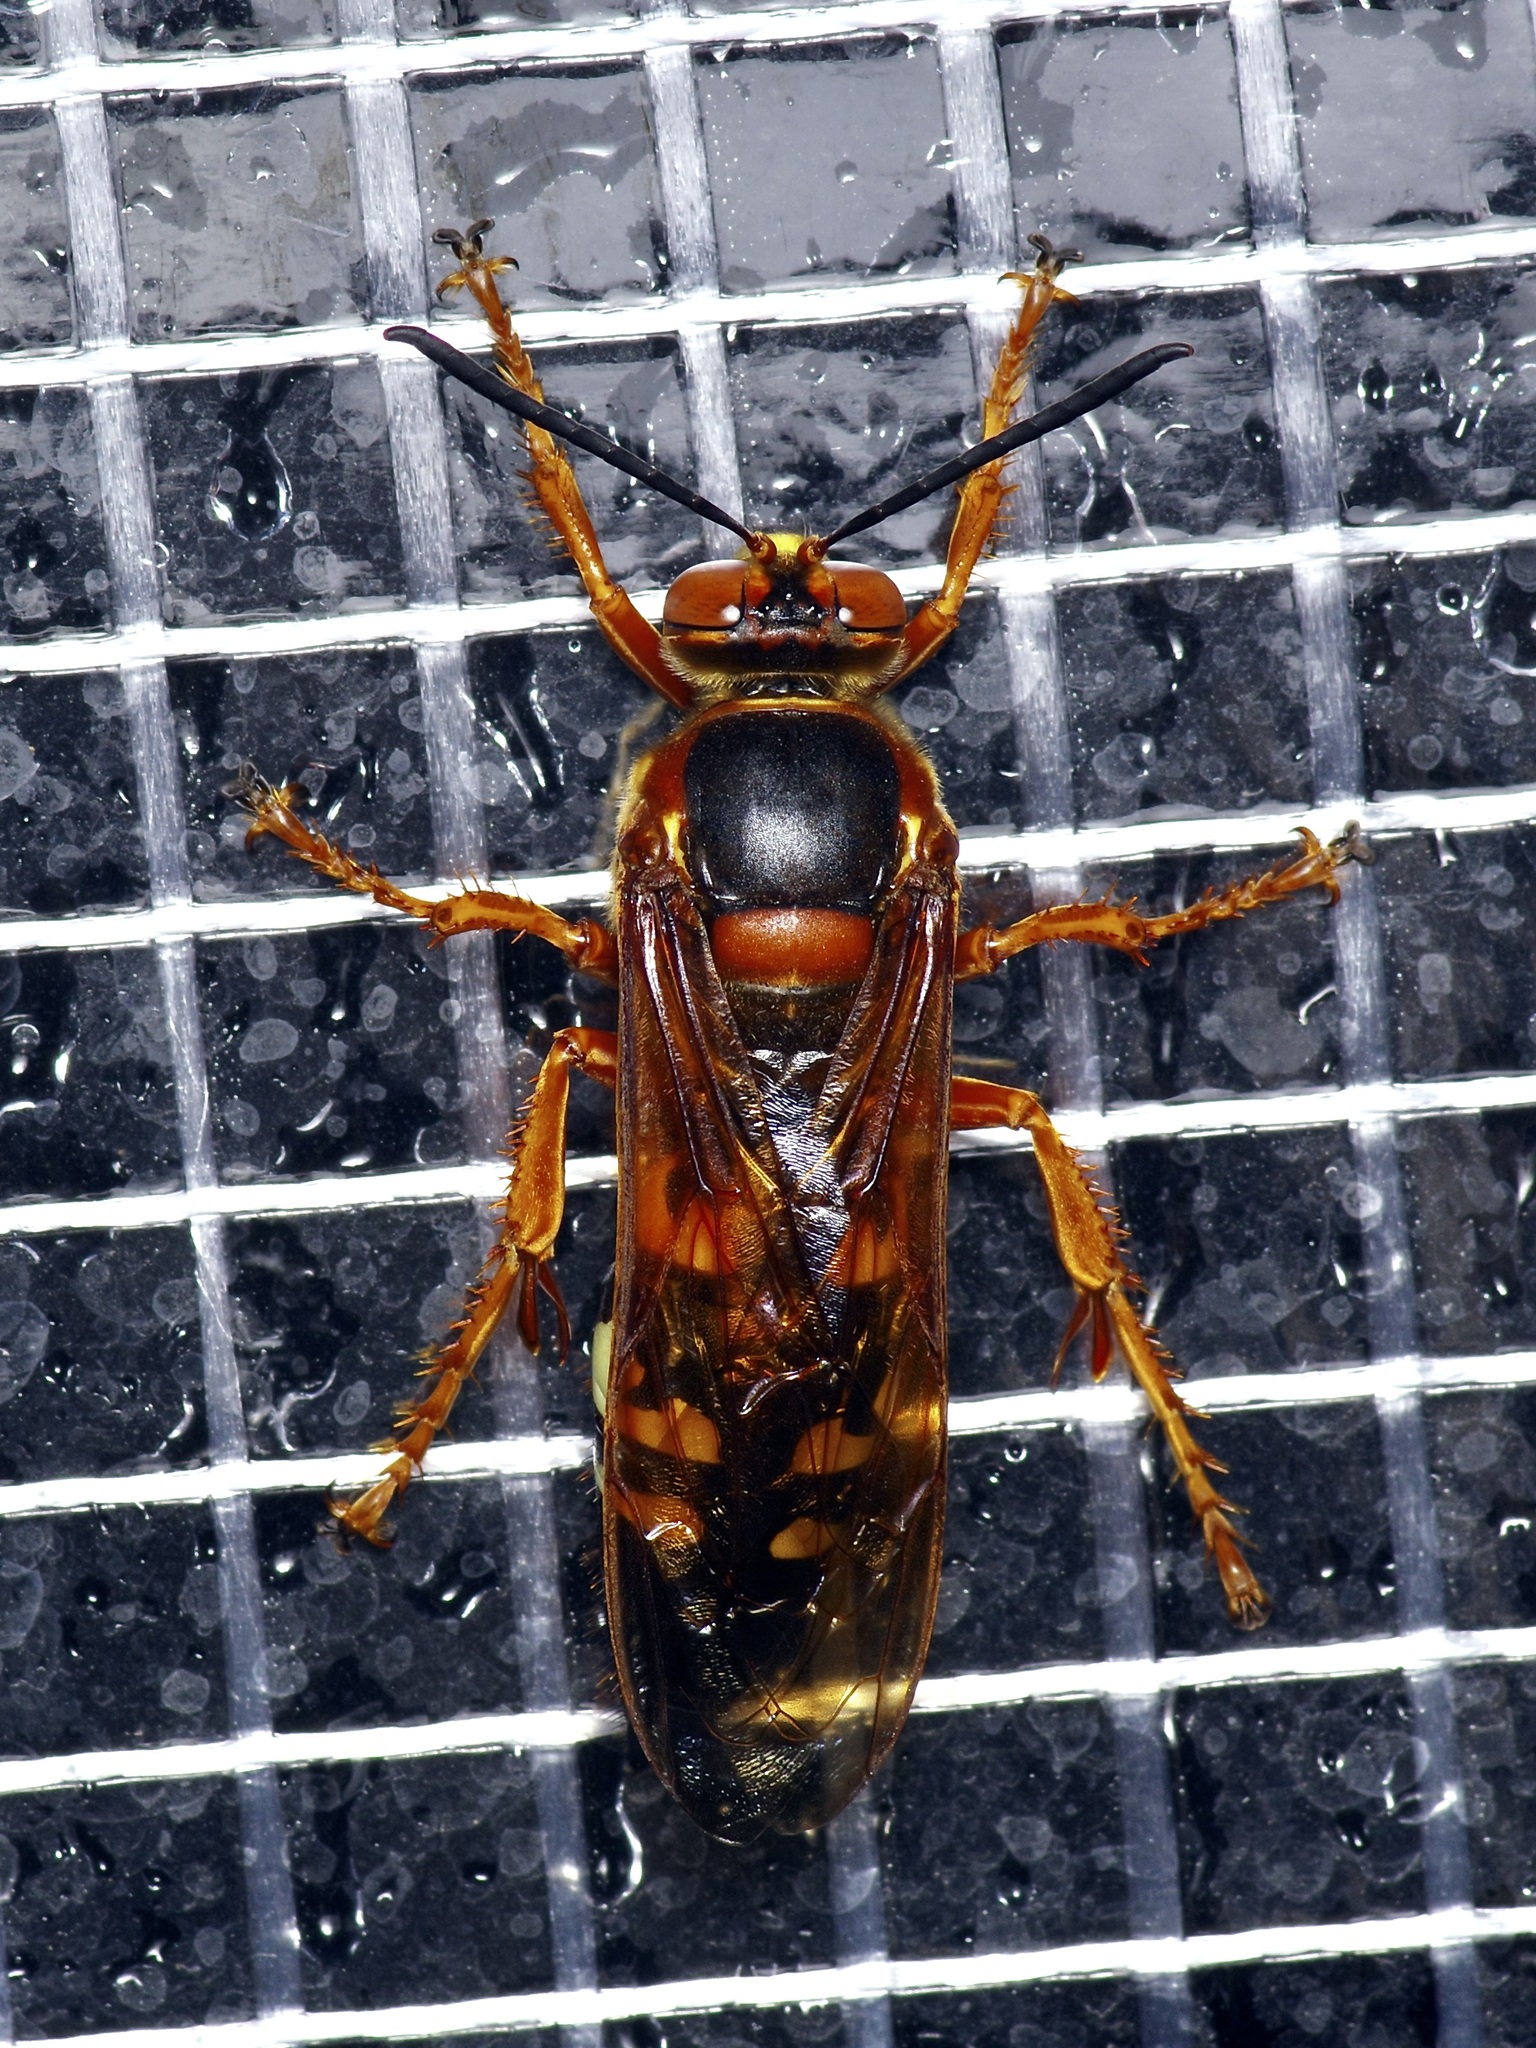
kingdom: Animalia
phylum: Arthropoda
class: Insecta
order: Hymenoptera
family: Crabronidae
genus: Sphecius
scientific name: Sphecius speciosus
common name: Cicada killer
